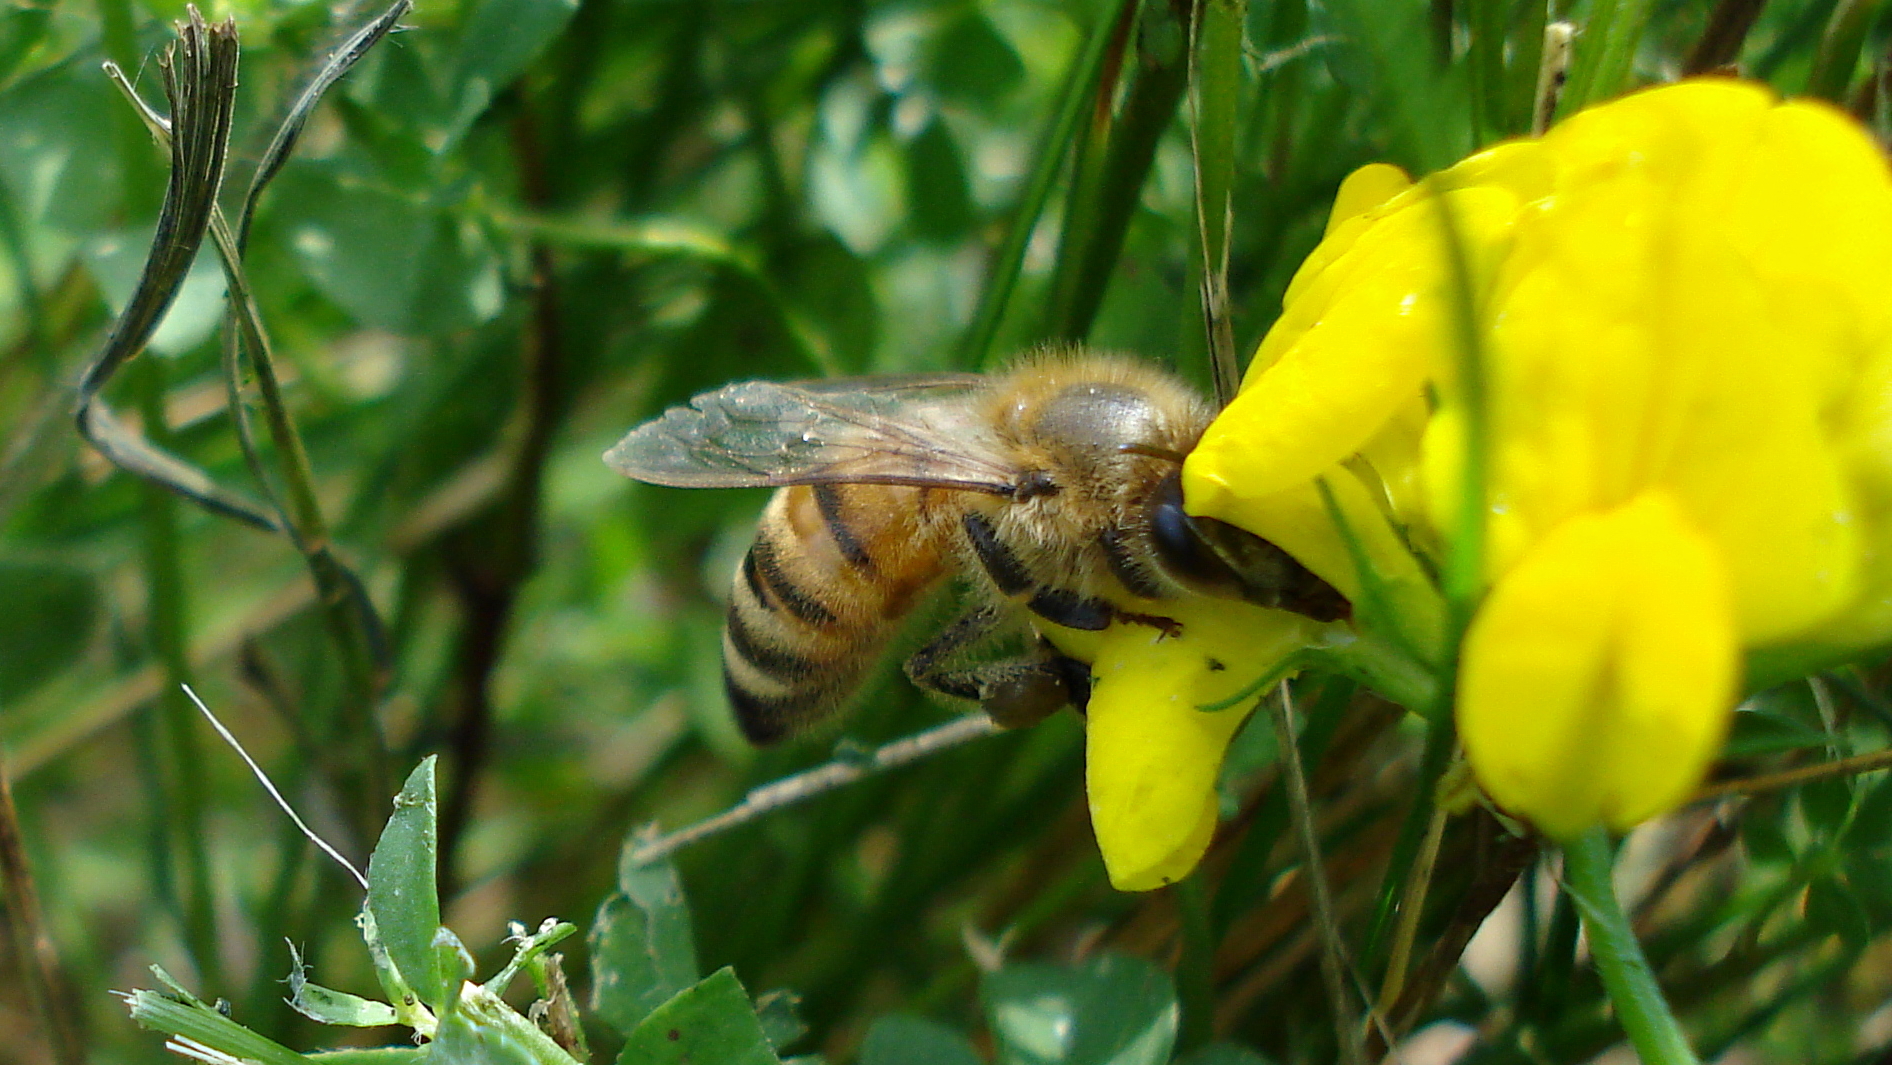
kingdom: Animalia
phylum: Arthropoda
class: Insecta
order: Hymenoptera
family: Apidae
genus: Apis
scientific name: Apis mellifera
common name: Honey bee
